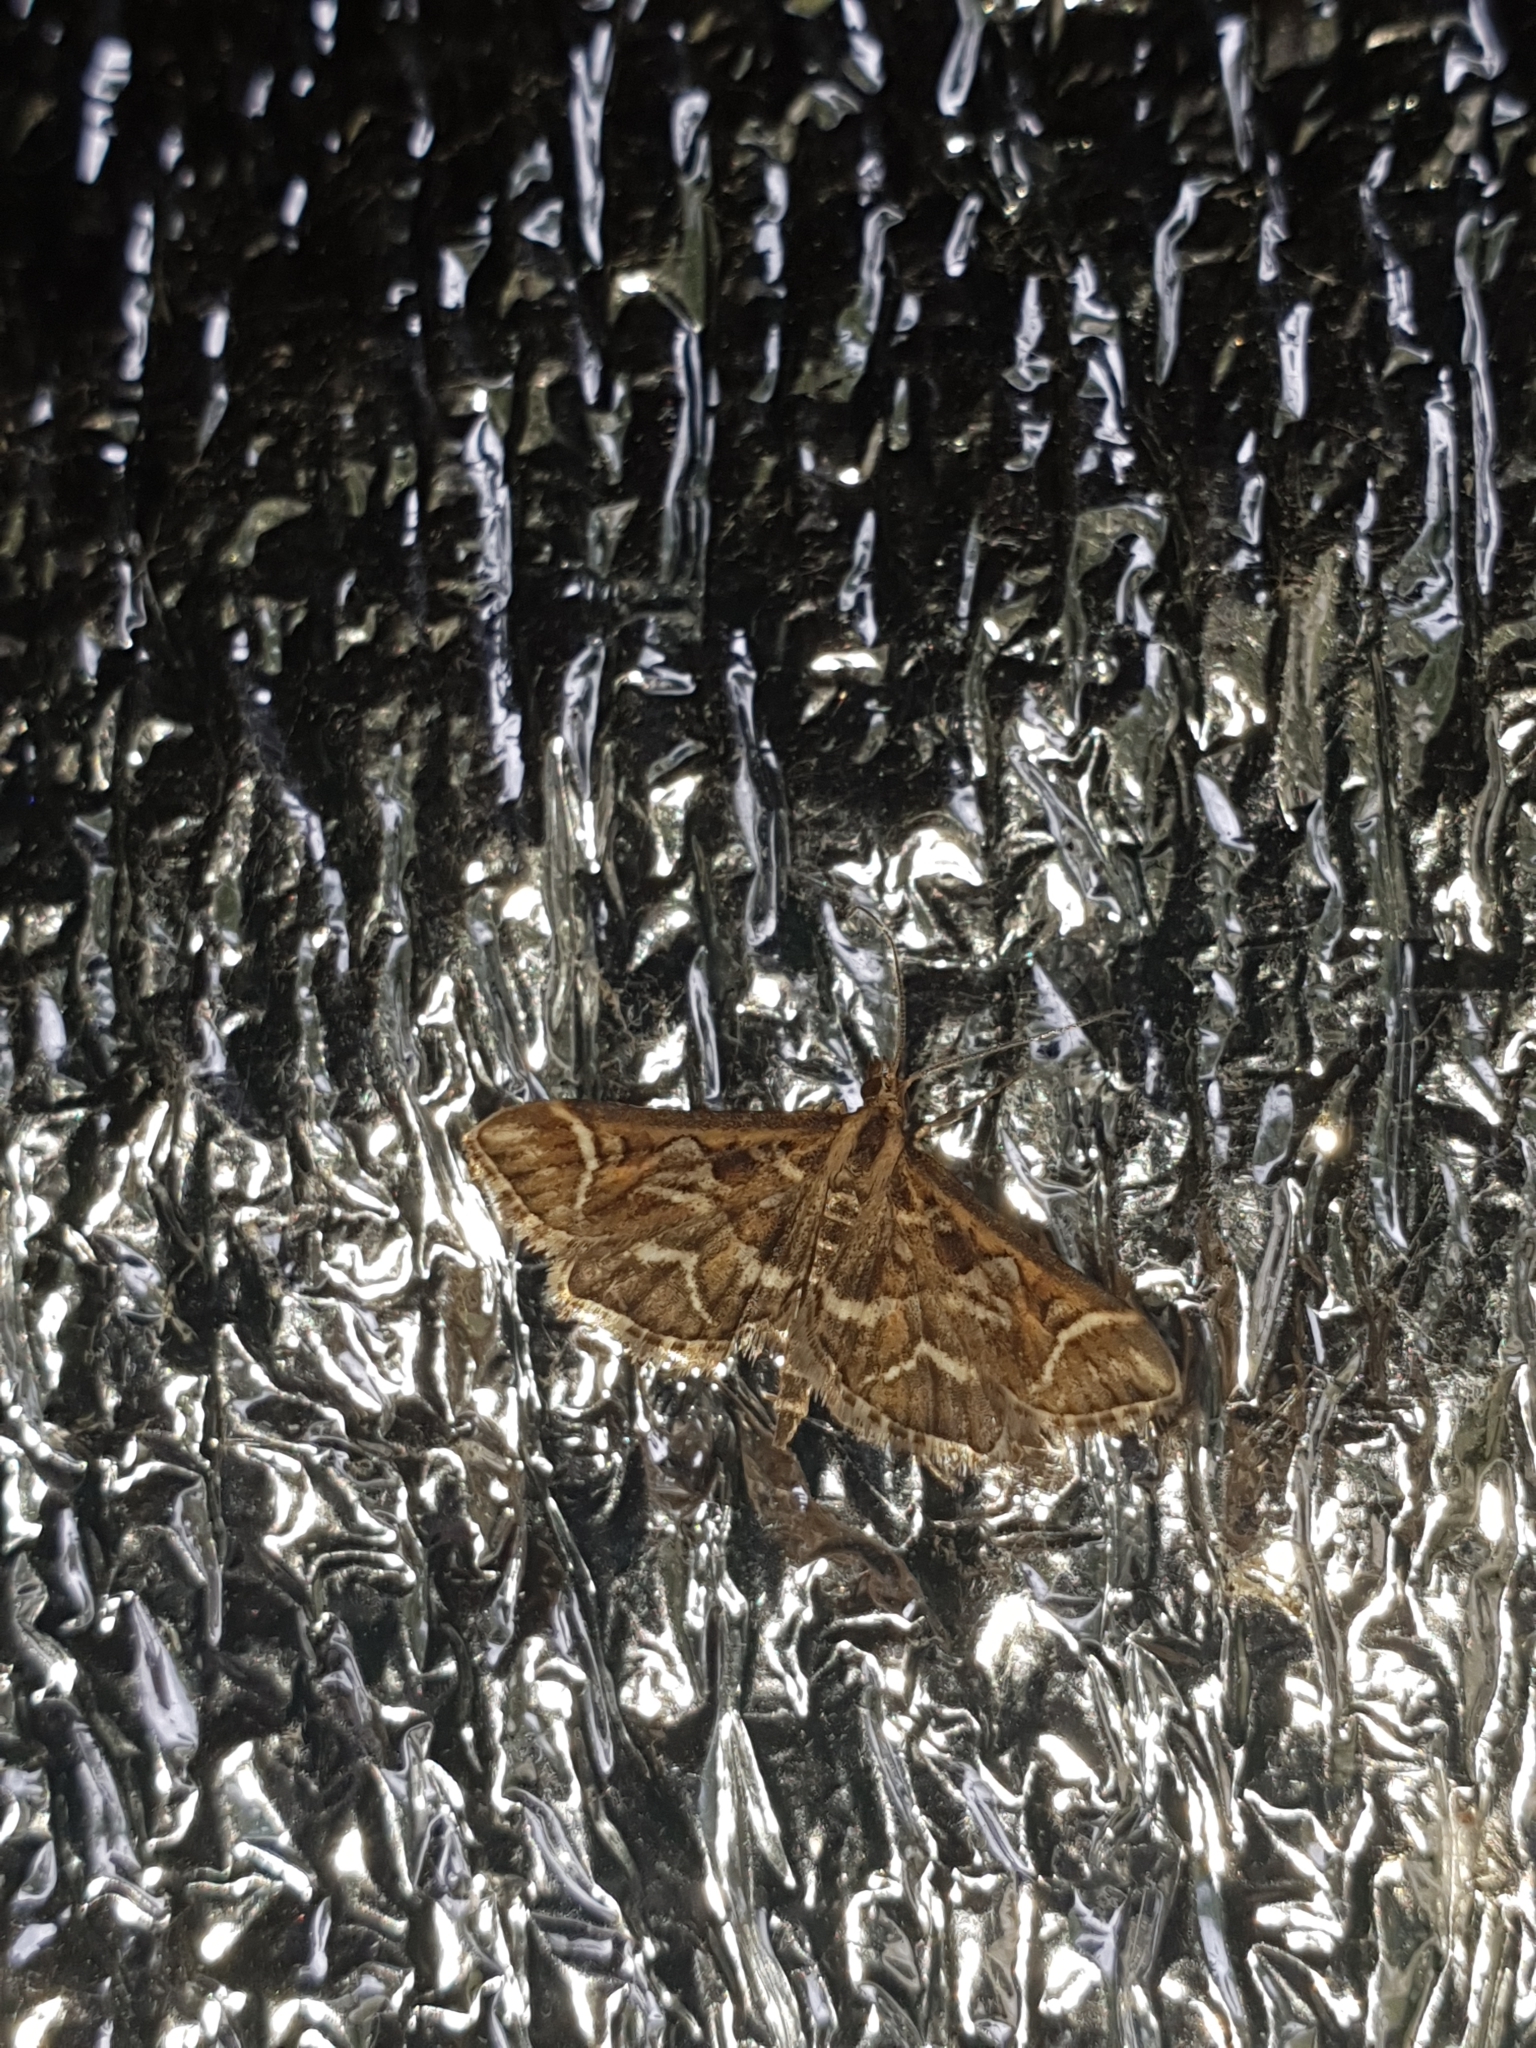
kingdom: Animalia
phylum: Arthropoda
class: Insecta
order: Lepidoptera
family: Crambidae
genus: Diasemia
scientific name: Diasemia reticularis
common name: Lettered china-mark
